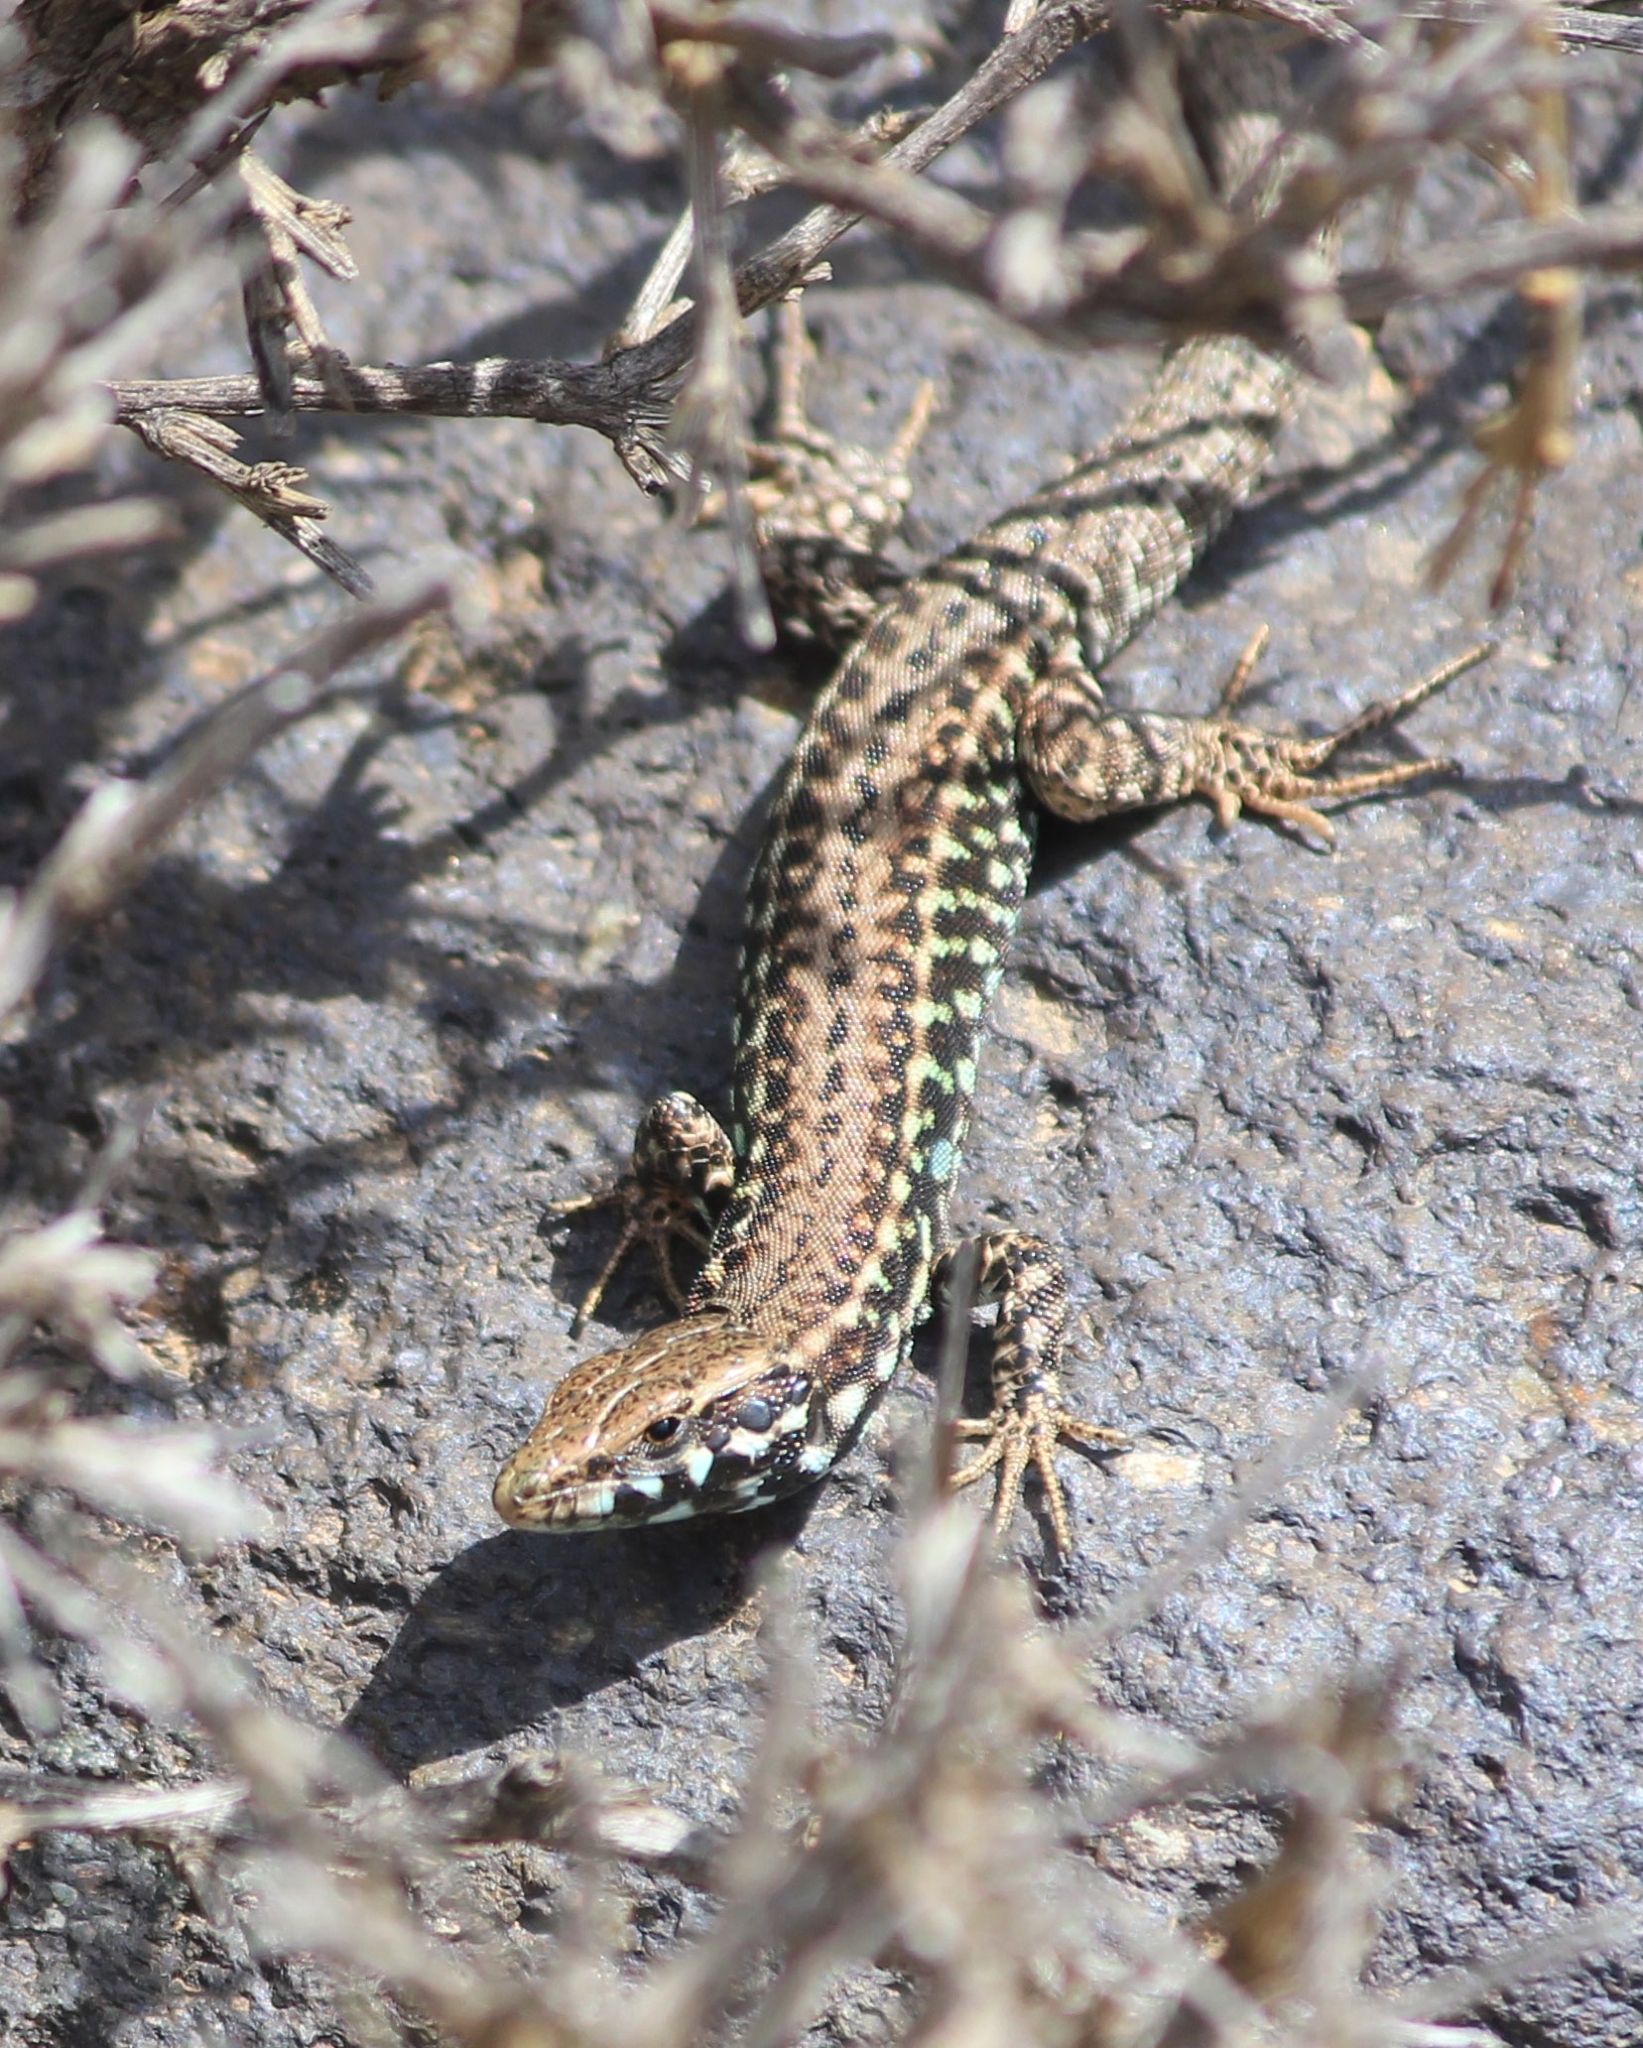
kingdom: Animalia
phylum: Chordata
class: Squamata
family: Lacertidae
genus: Podarcis
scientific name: Podarcis milensis
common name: Milos wall lizard
